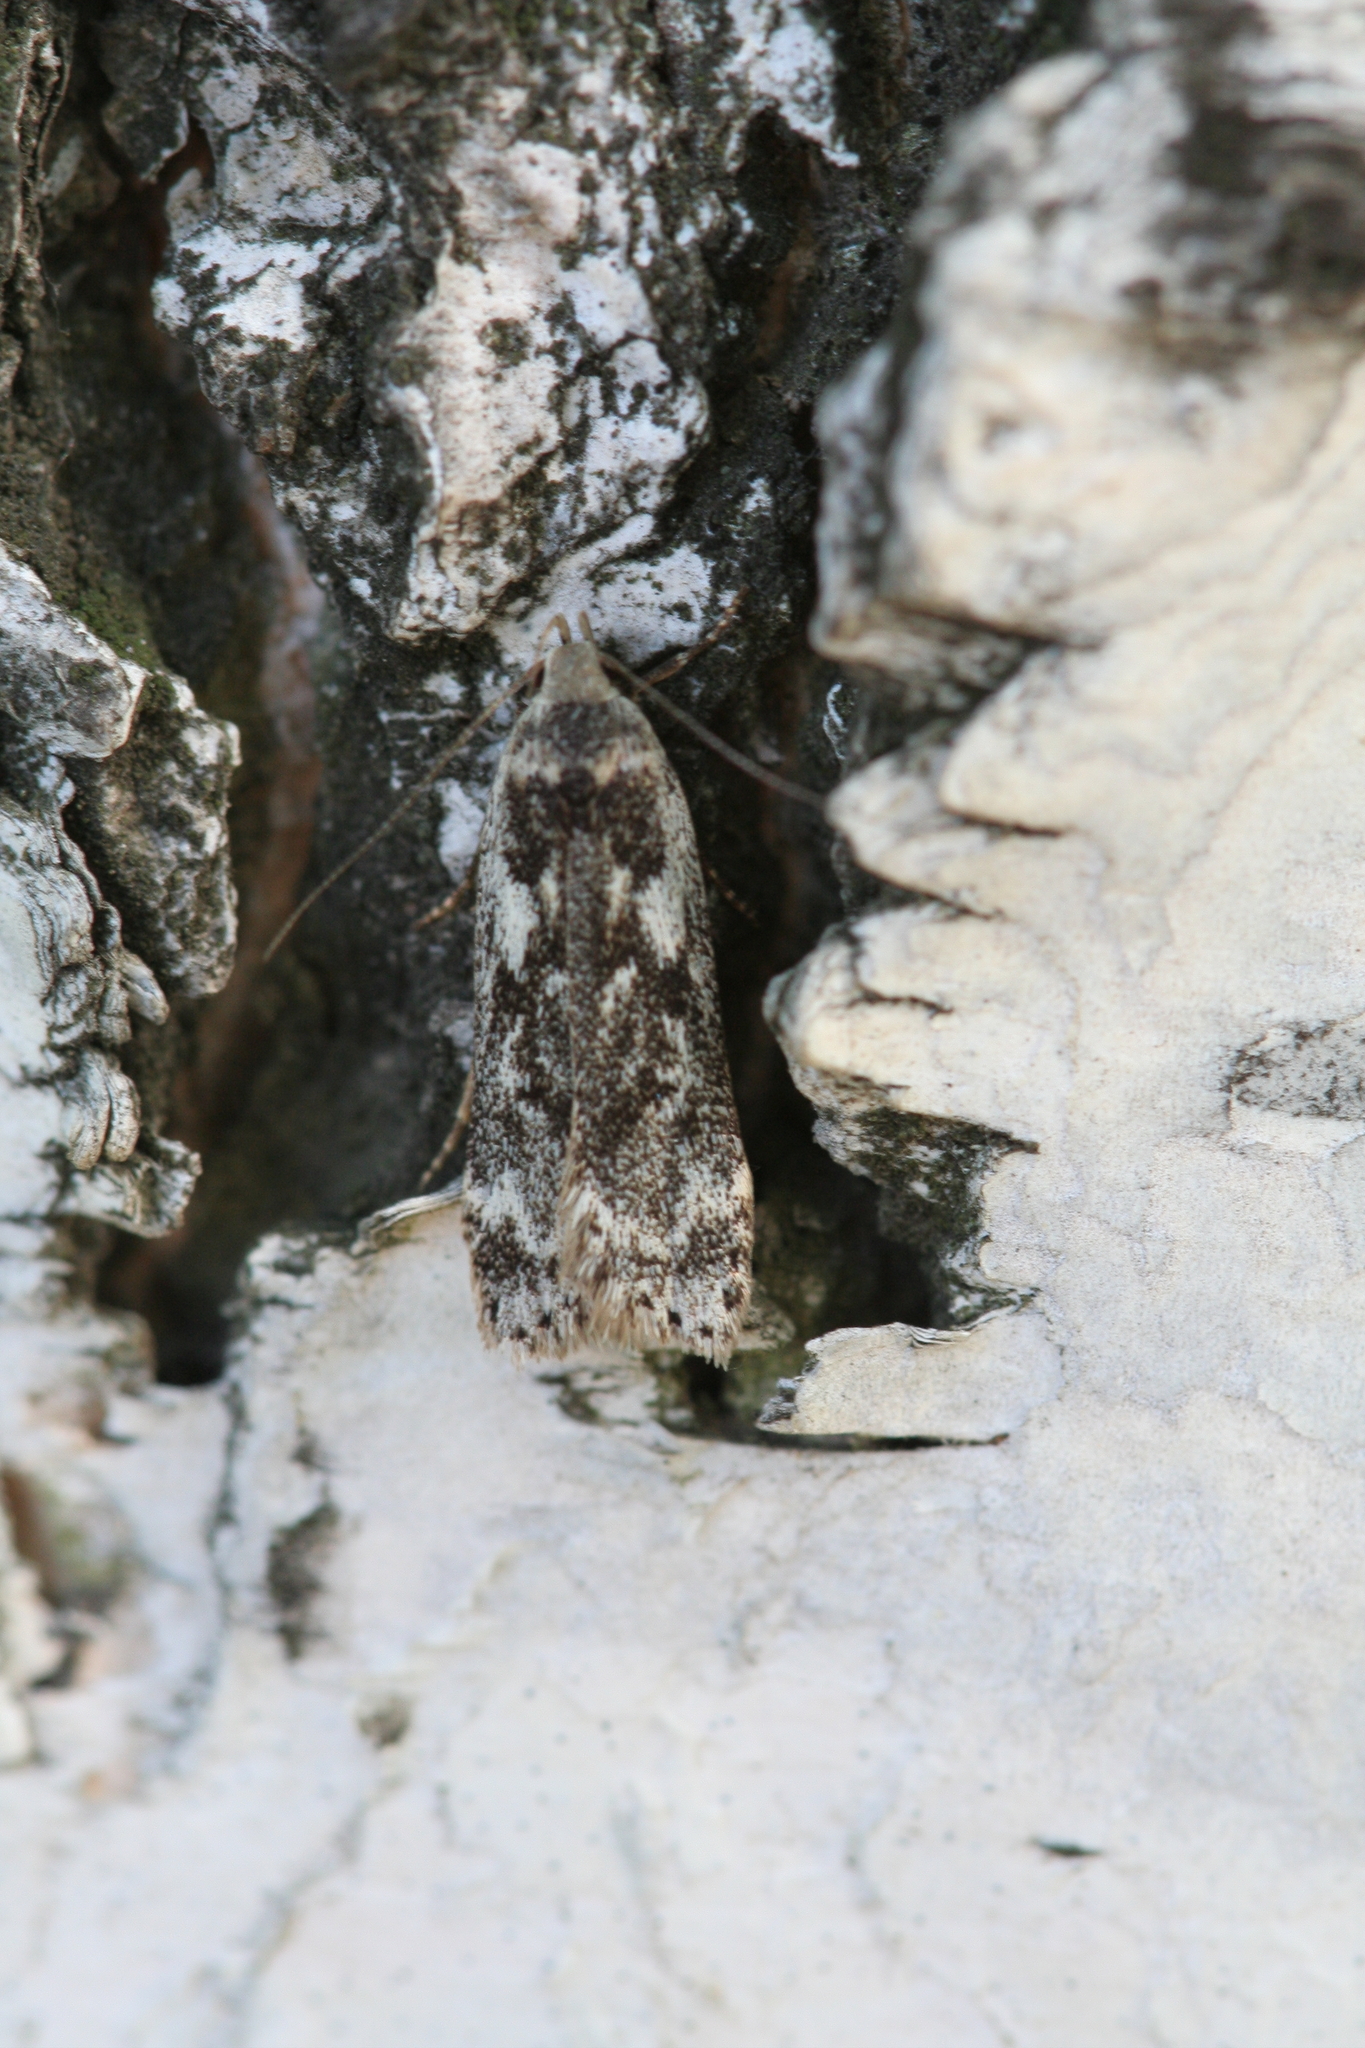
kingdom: Animalia
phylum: Arthropoda
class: Insecta
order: Lepidoptera
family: Gelechiidae
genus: Anacampsis
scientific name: Anacampsis blattariella
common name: Birch sober
